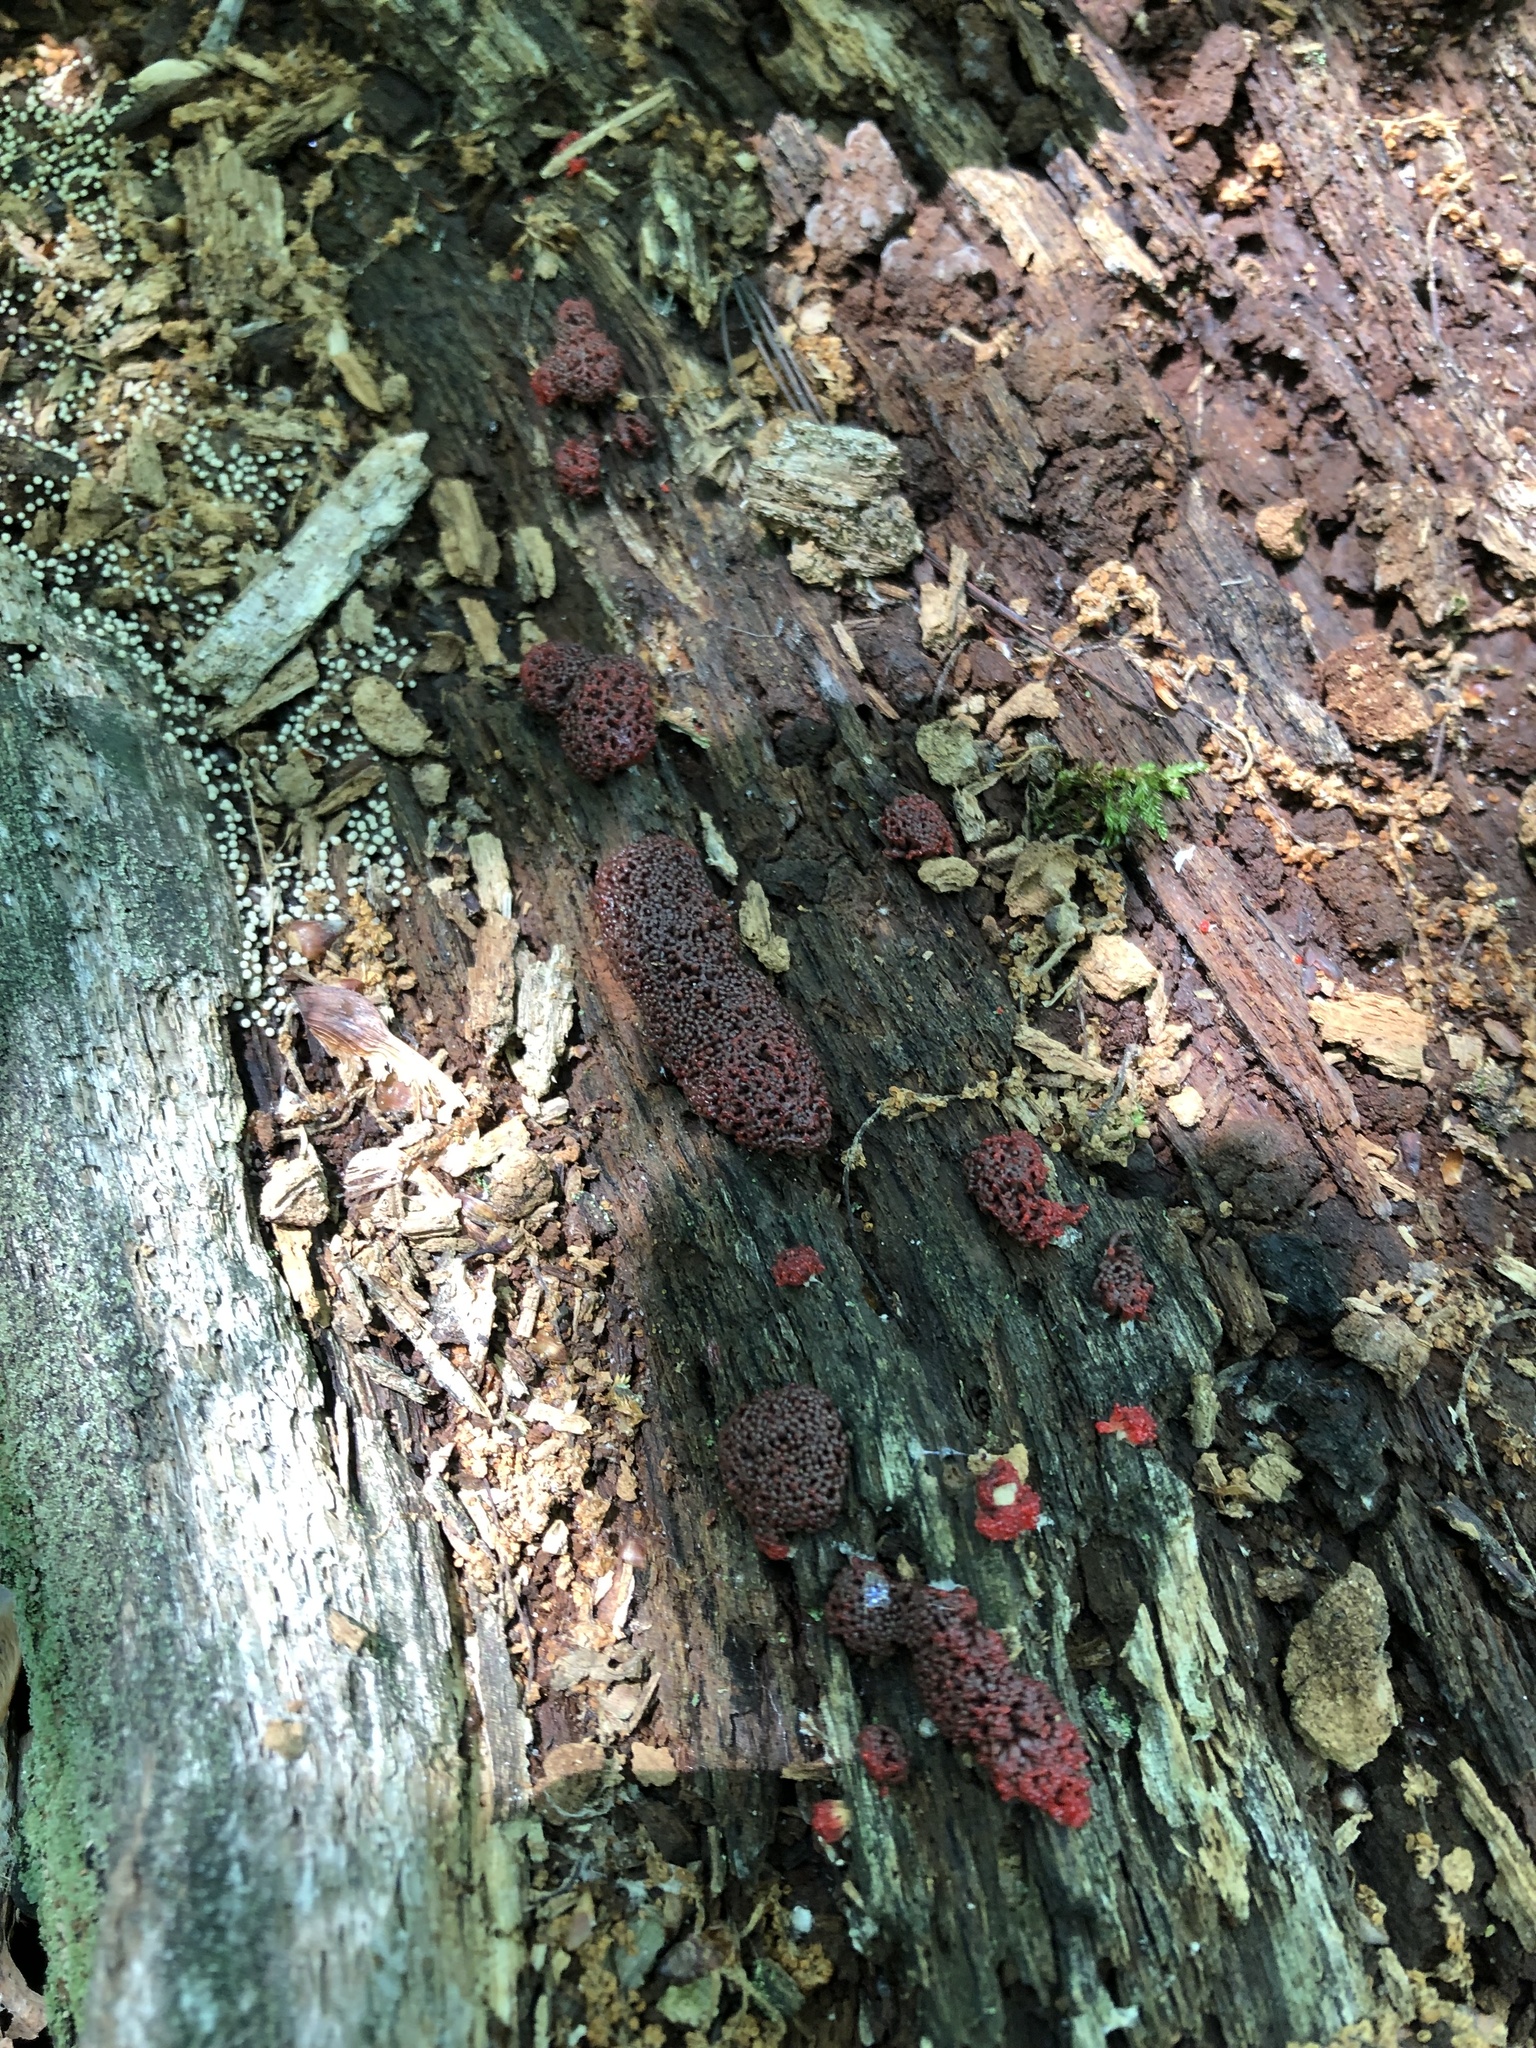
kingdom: Protozoa
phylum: Mycetozoa
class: Myxomycetes
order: Cribrariales
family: Tubiferaceae
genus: Tubifera
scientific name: Tubifera ferruginosa
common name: Red raspberry slime mold
